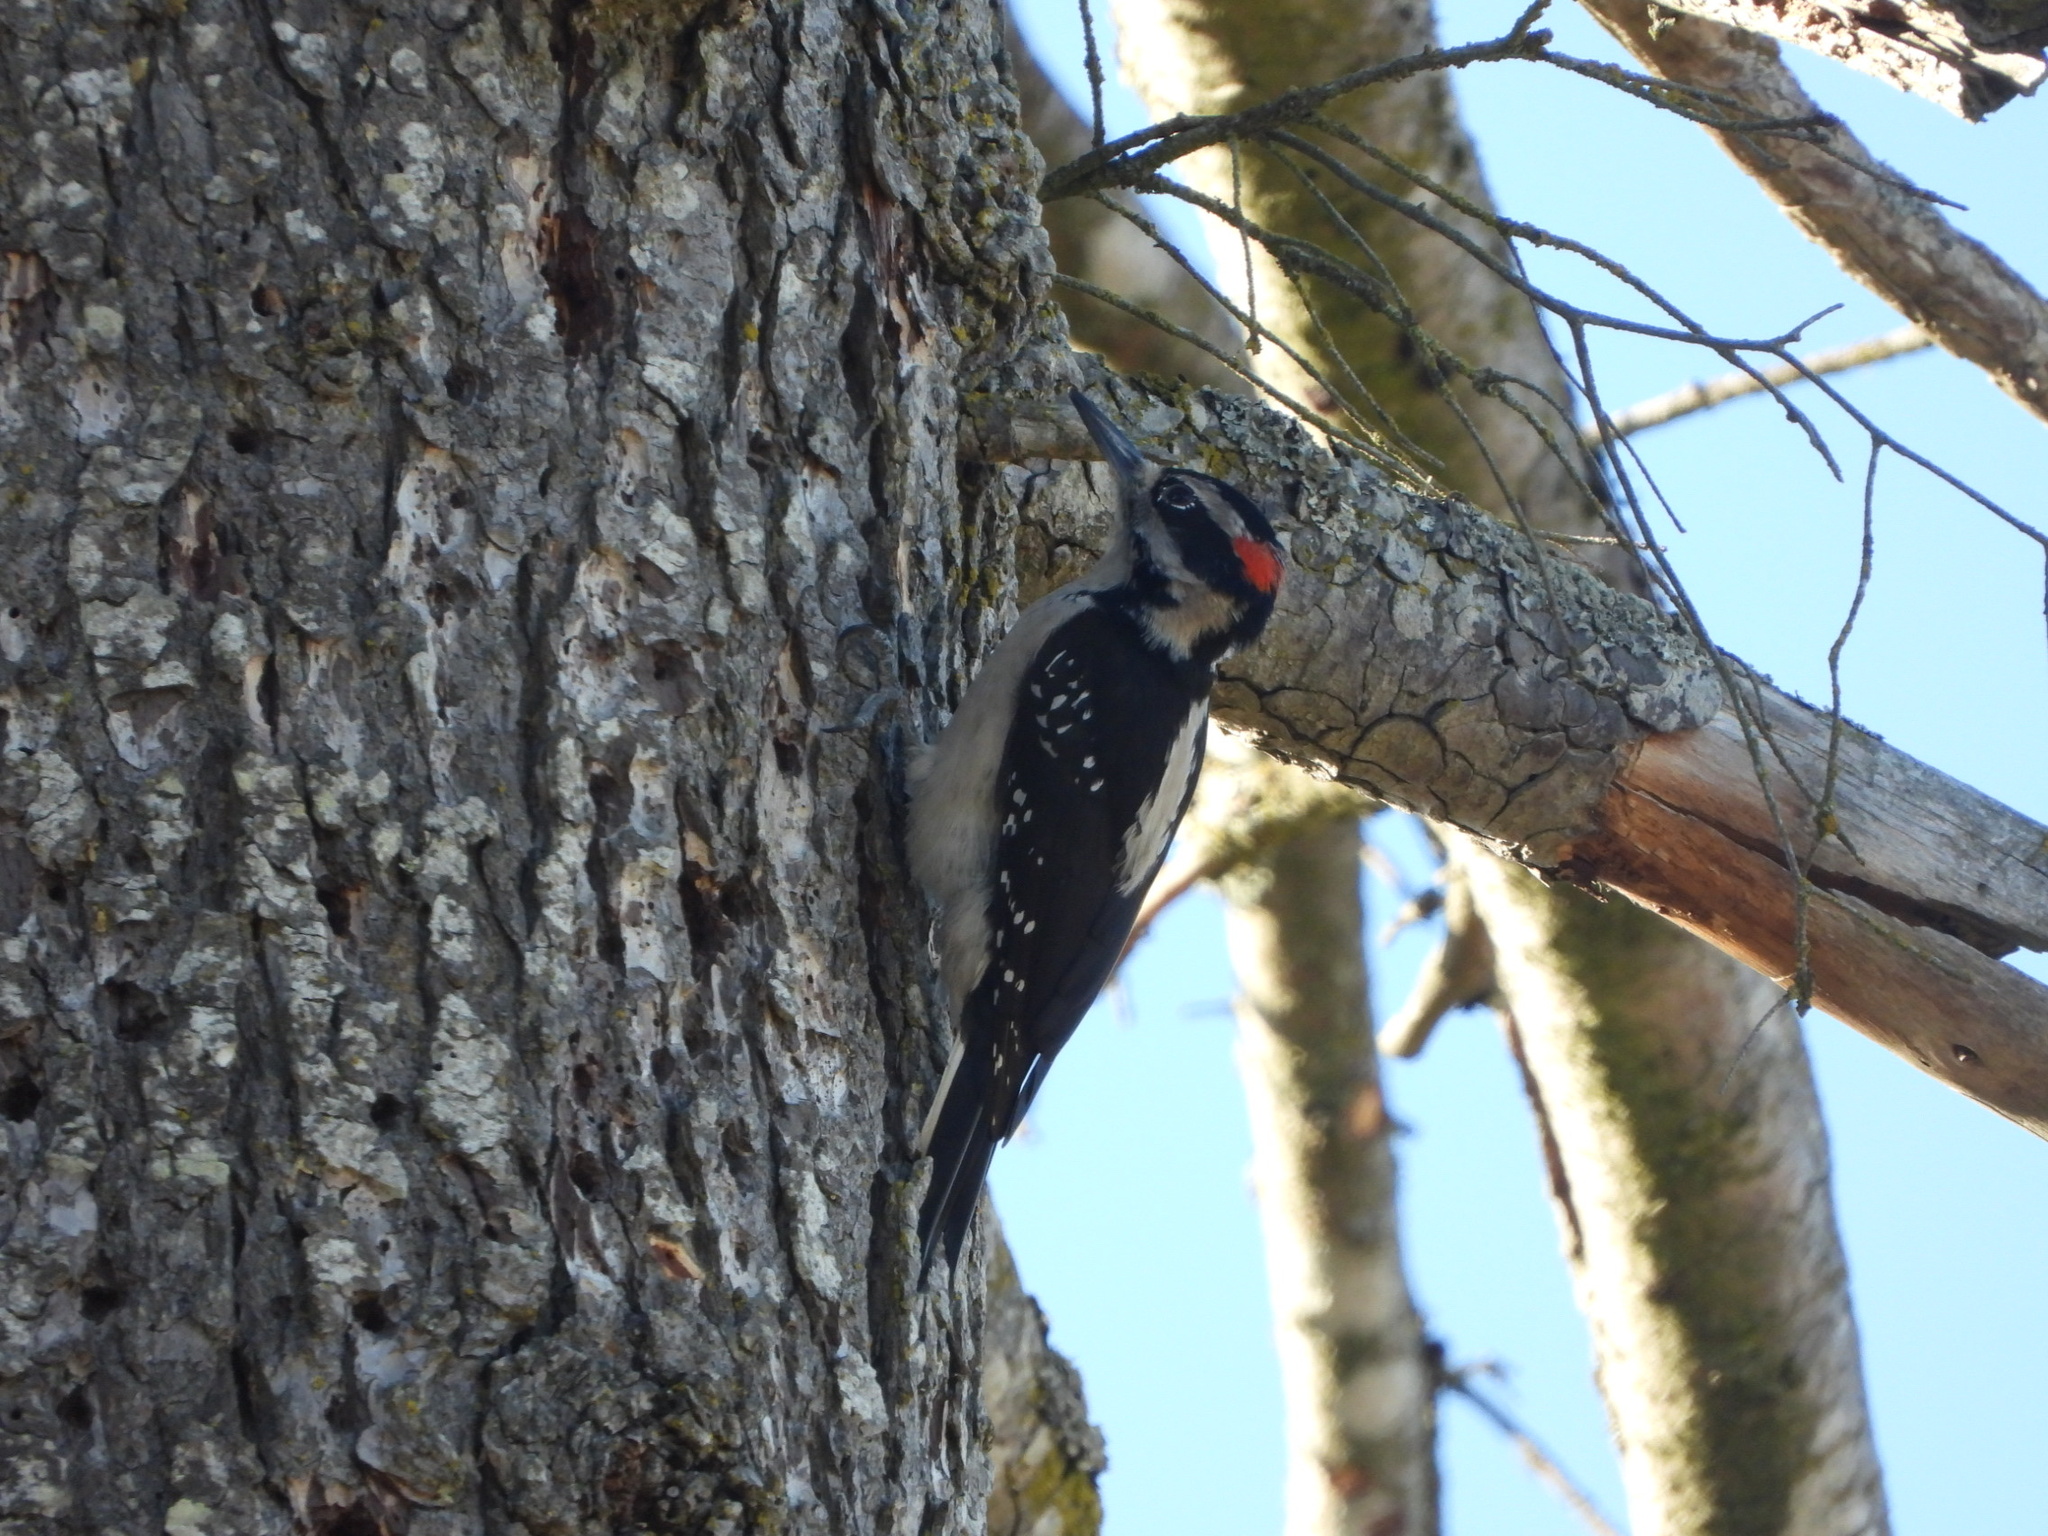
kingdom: Animalia
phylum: Chordata
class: Aves
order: Piciformes
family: Picidae
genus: Leuconotopicus
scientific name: Leuconotopicus villosus
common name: Hairy woodpecker
